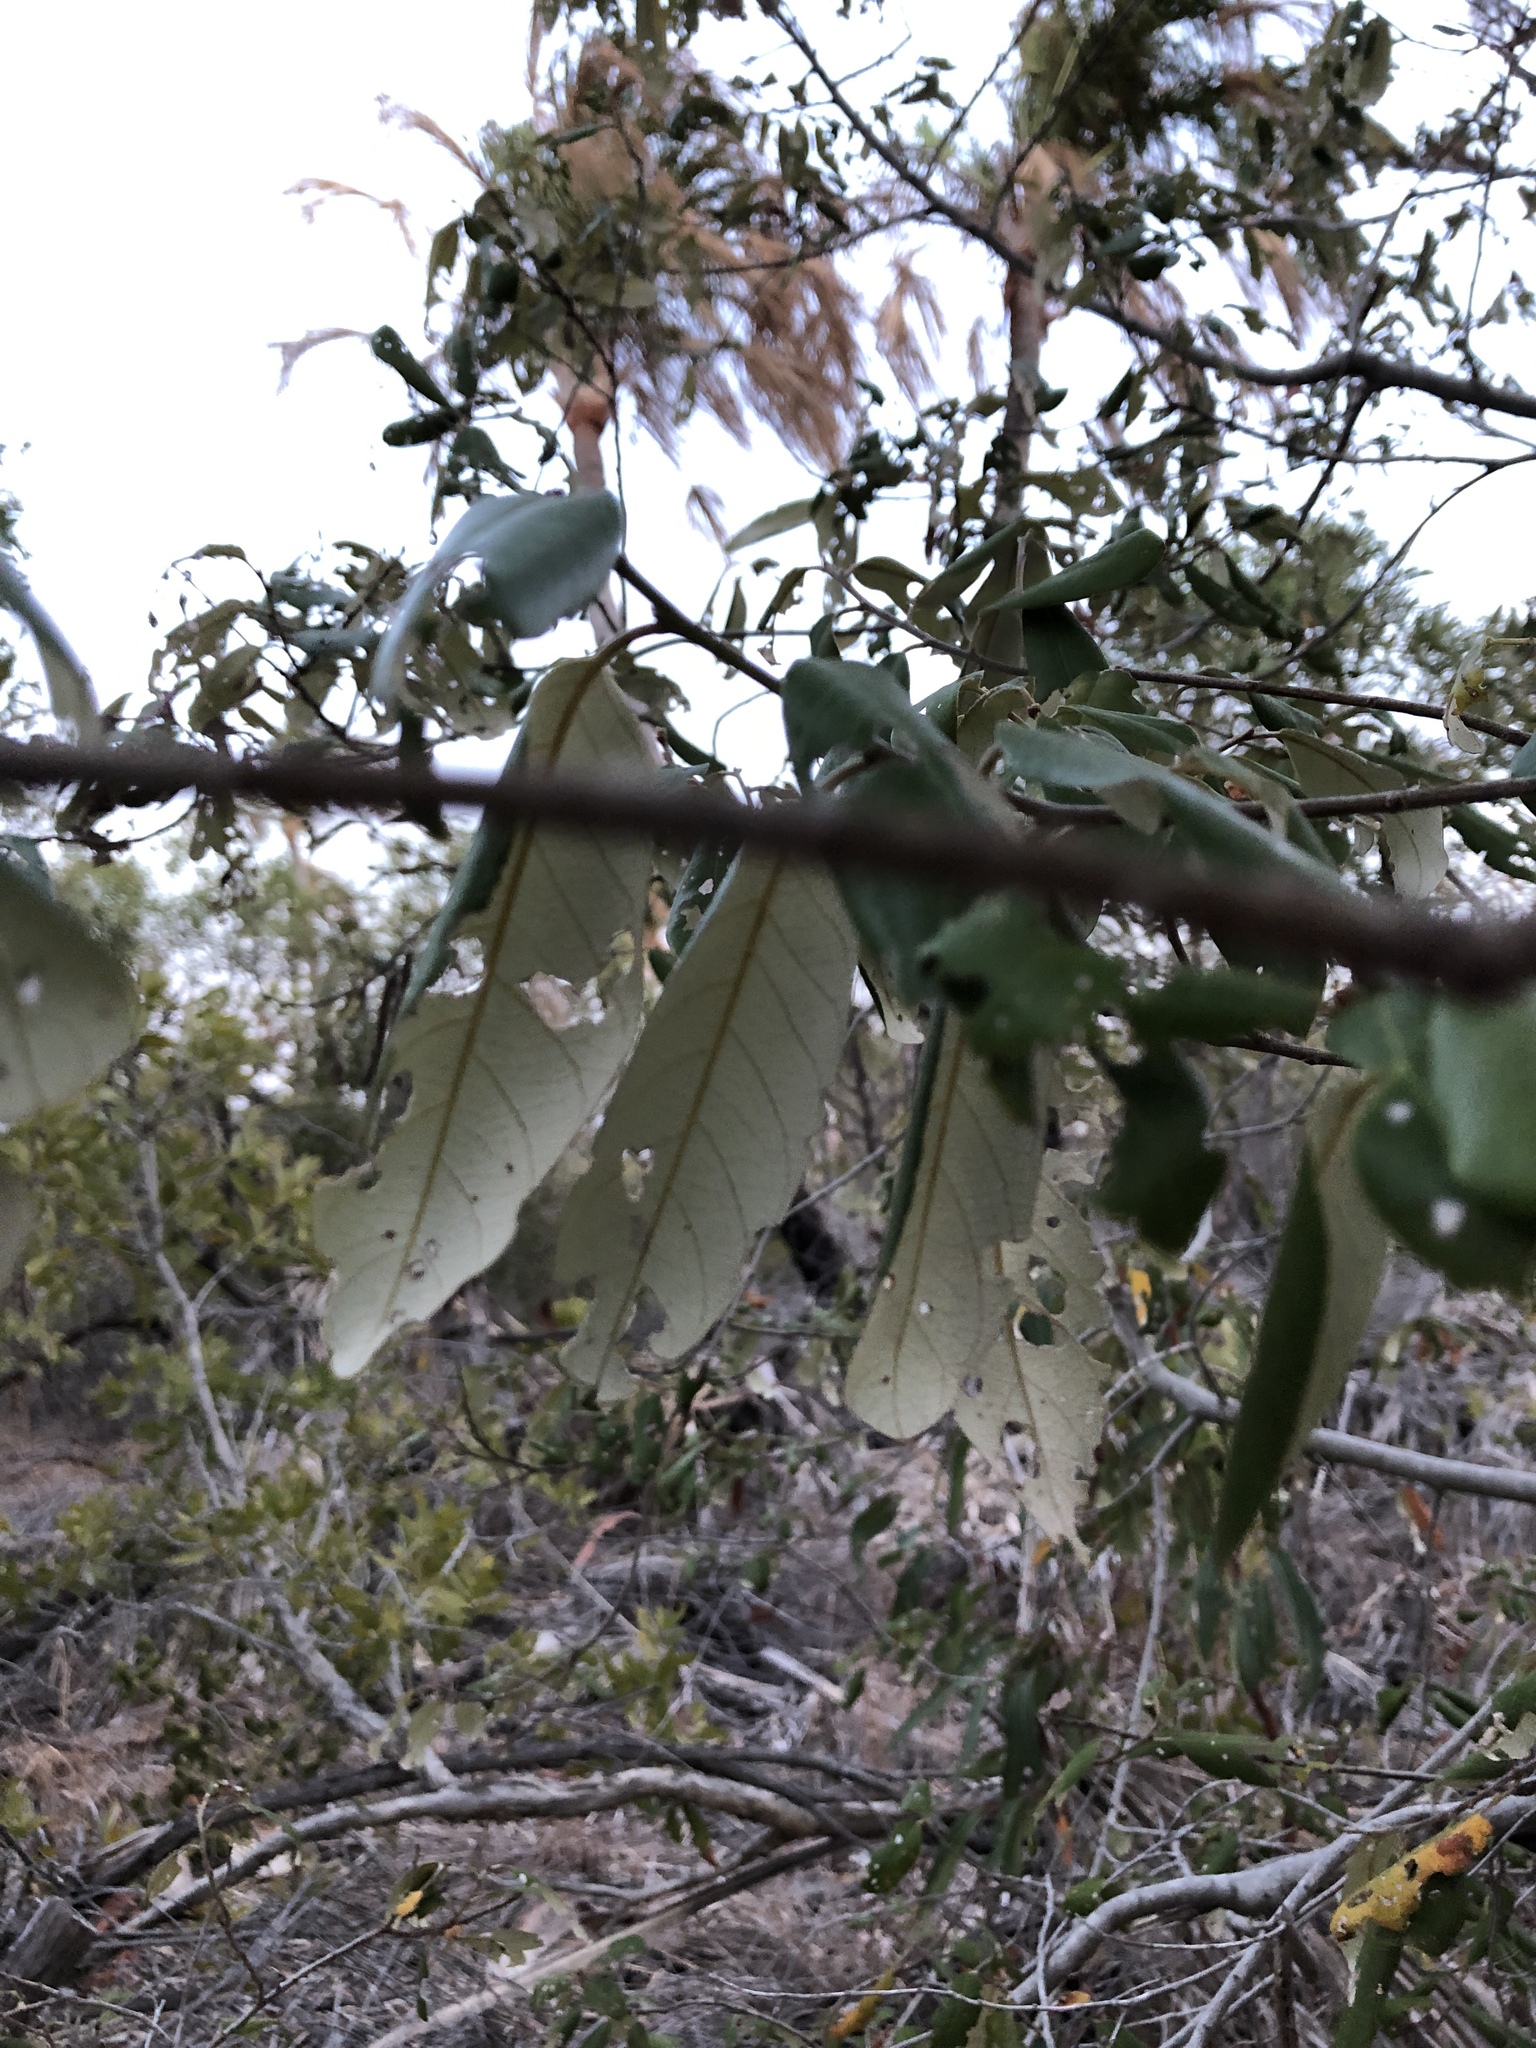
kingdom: Plantae
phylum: Tracheophyta
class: Magnoliopsida
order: Rosales
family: Rhamnaceae
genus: Alphitonia
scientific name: Alphitonia excelsa
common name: Red ash
